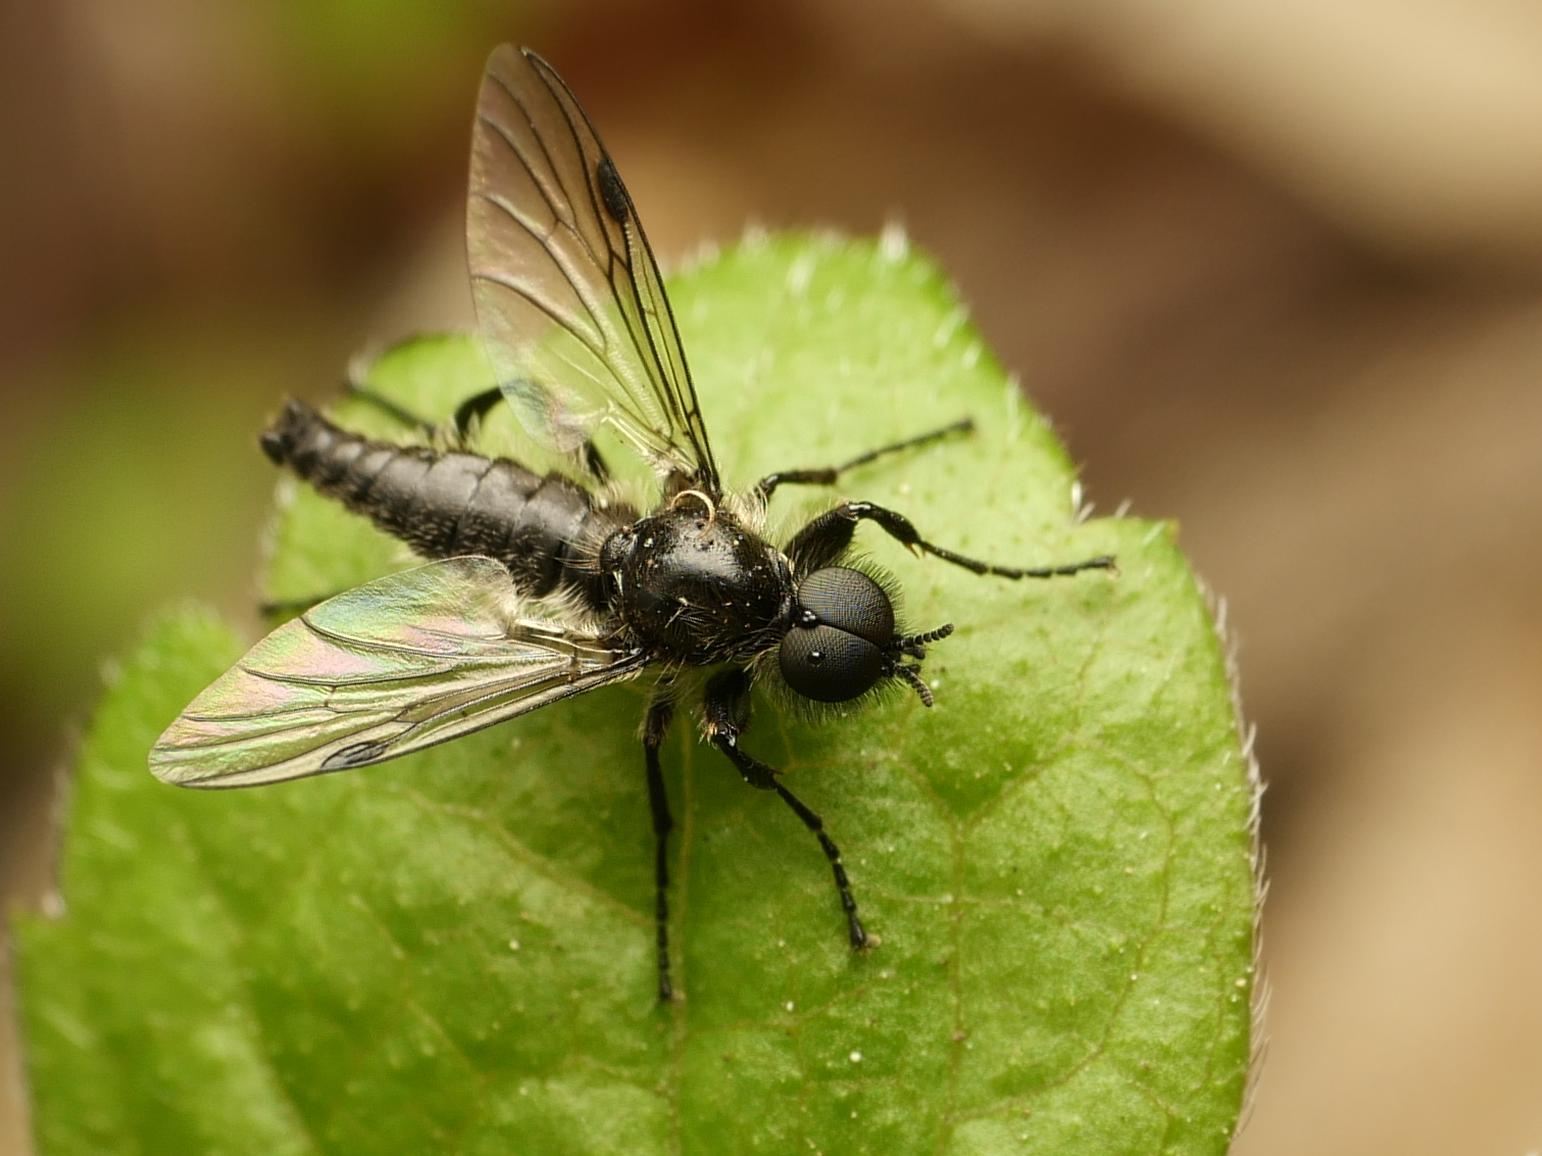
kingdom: Animalia
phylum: Arthropoda
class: Insecta
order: Diptera
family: Bibionidae
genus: Bibio
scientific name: Bibio marci
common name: St marks fly
